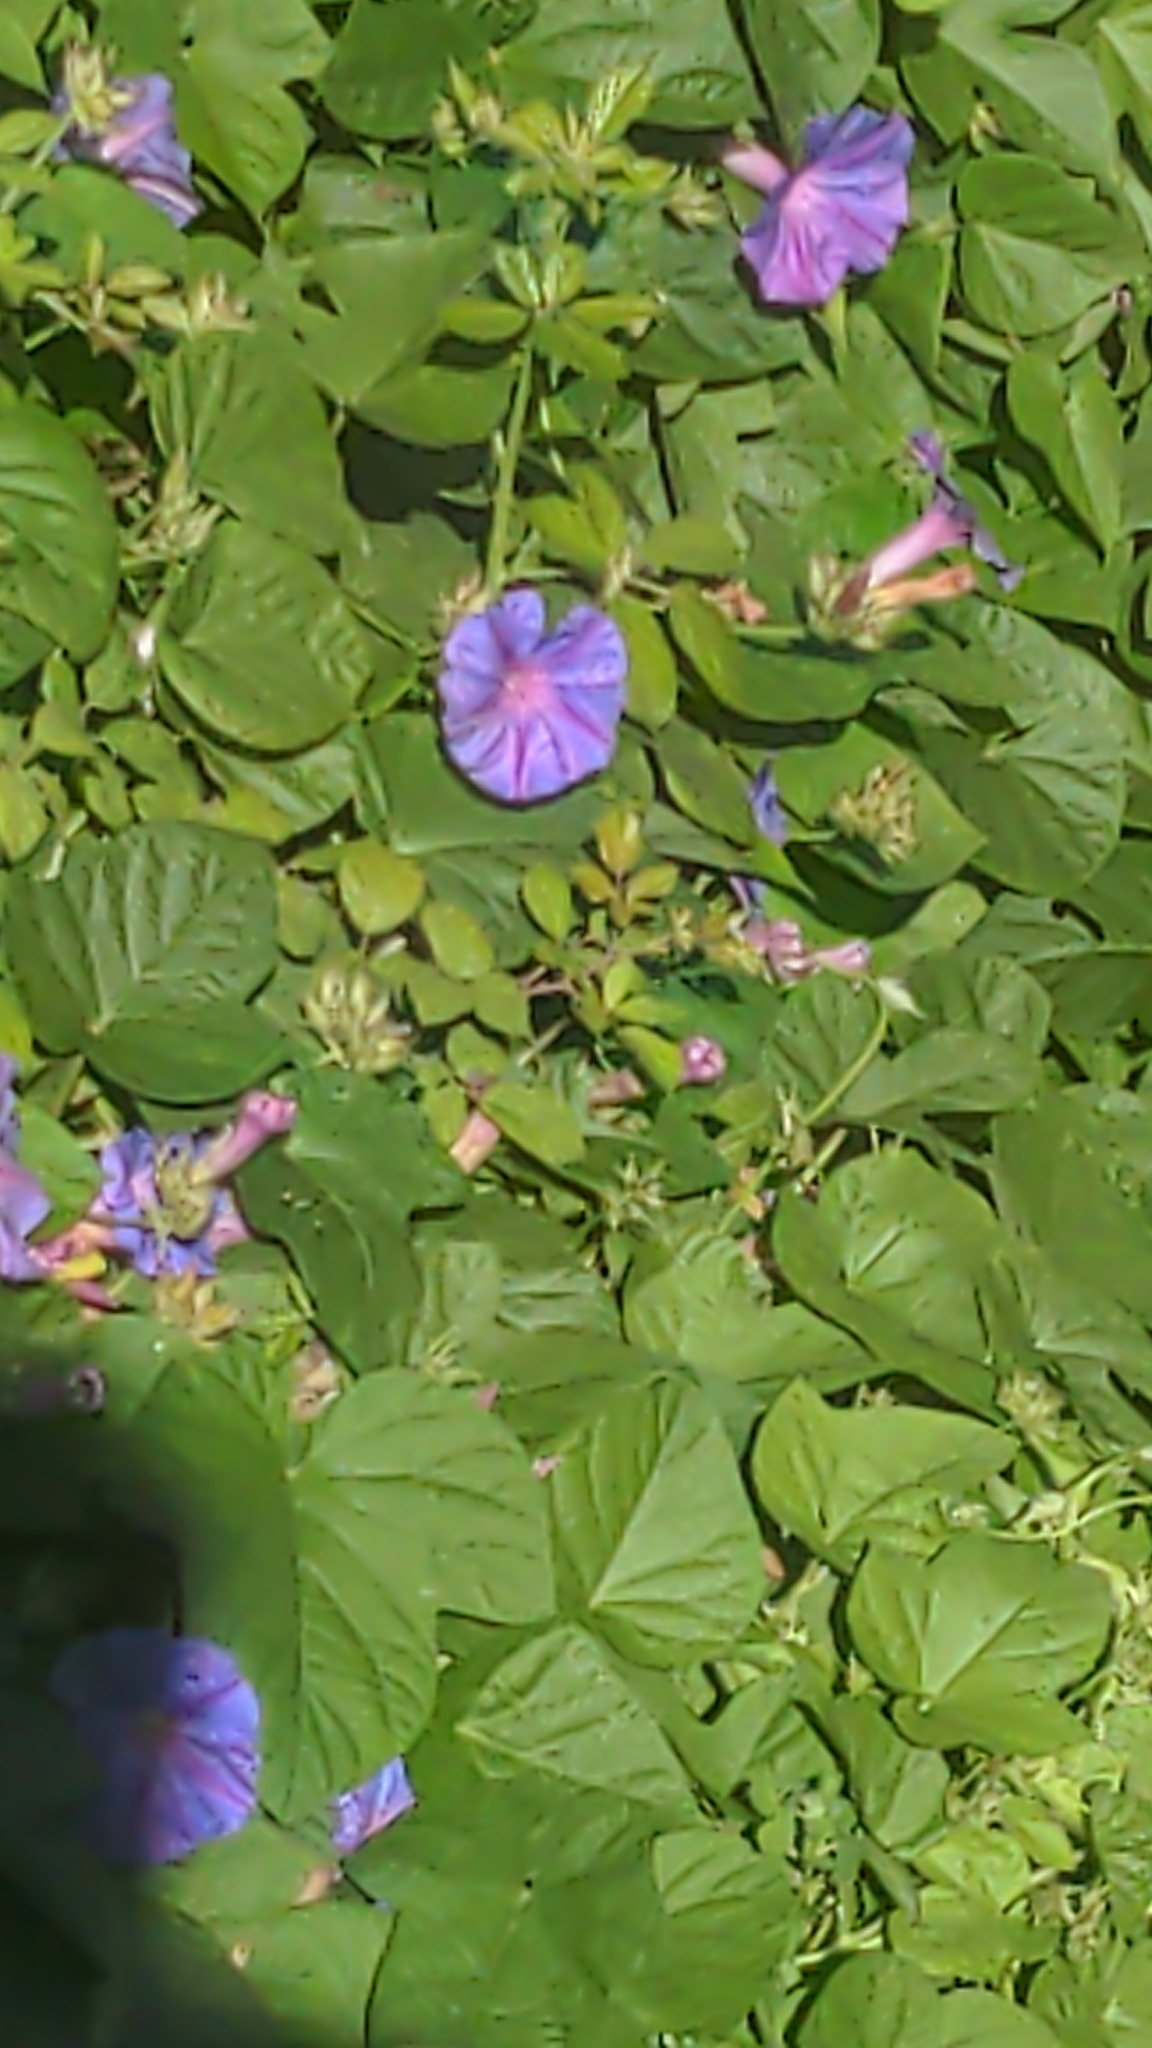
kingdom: Plantae
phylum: Tracheophyta
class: Magnoliopsida
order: Solanales
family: Convolvulaceae
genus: Ipomoea
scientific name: Ipomoea indica
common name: Blue dawnflower
